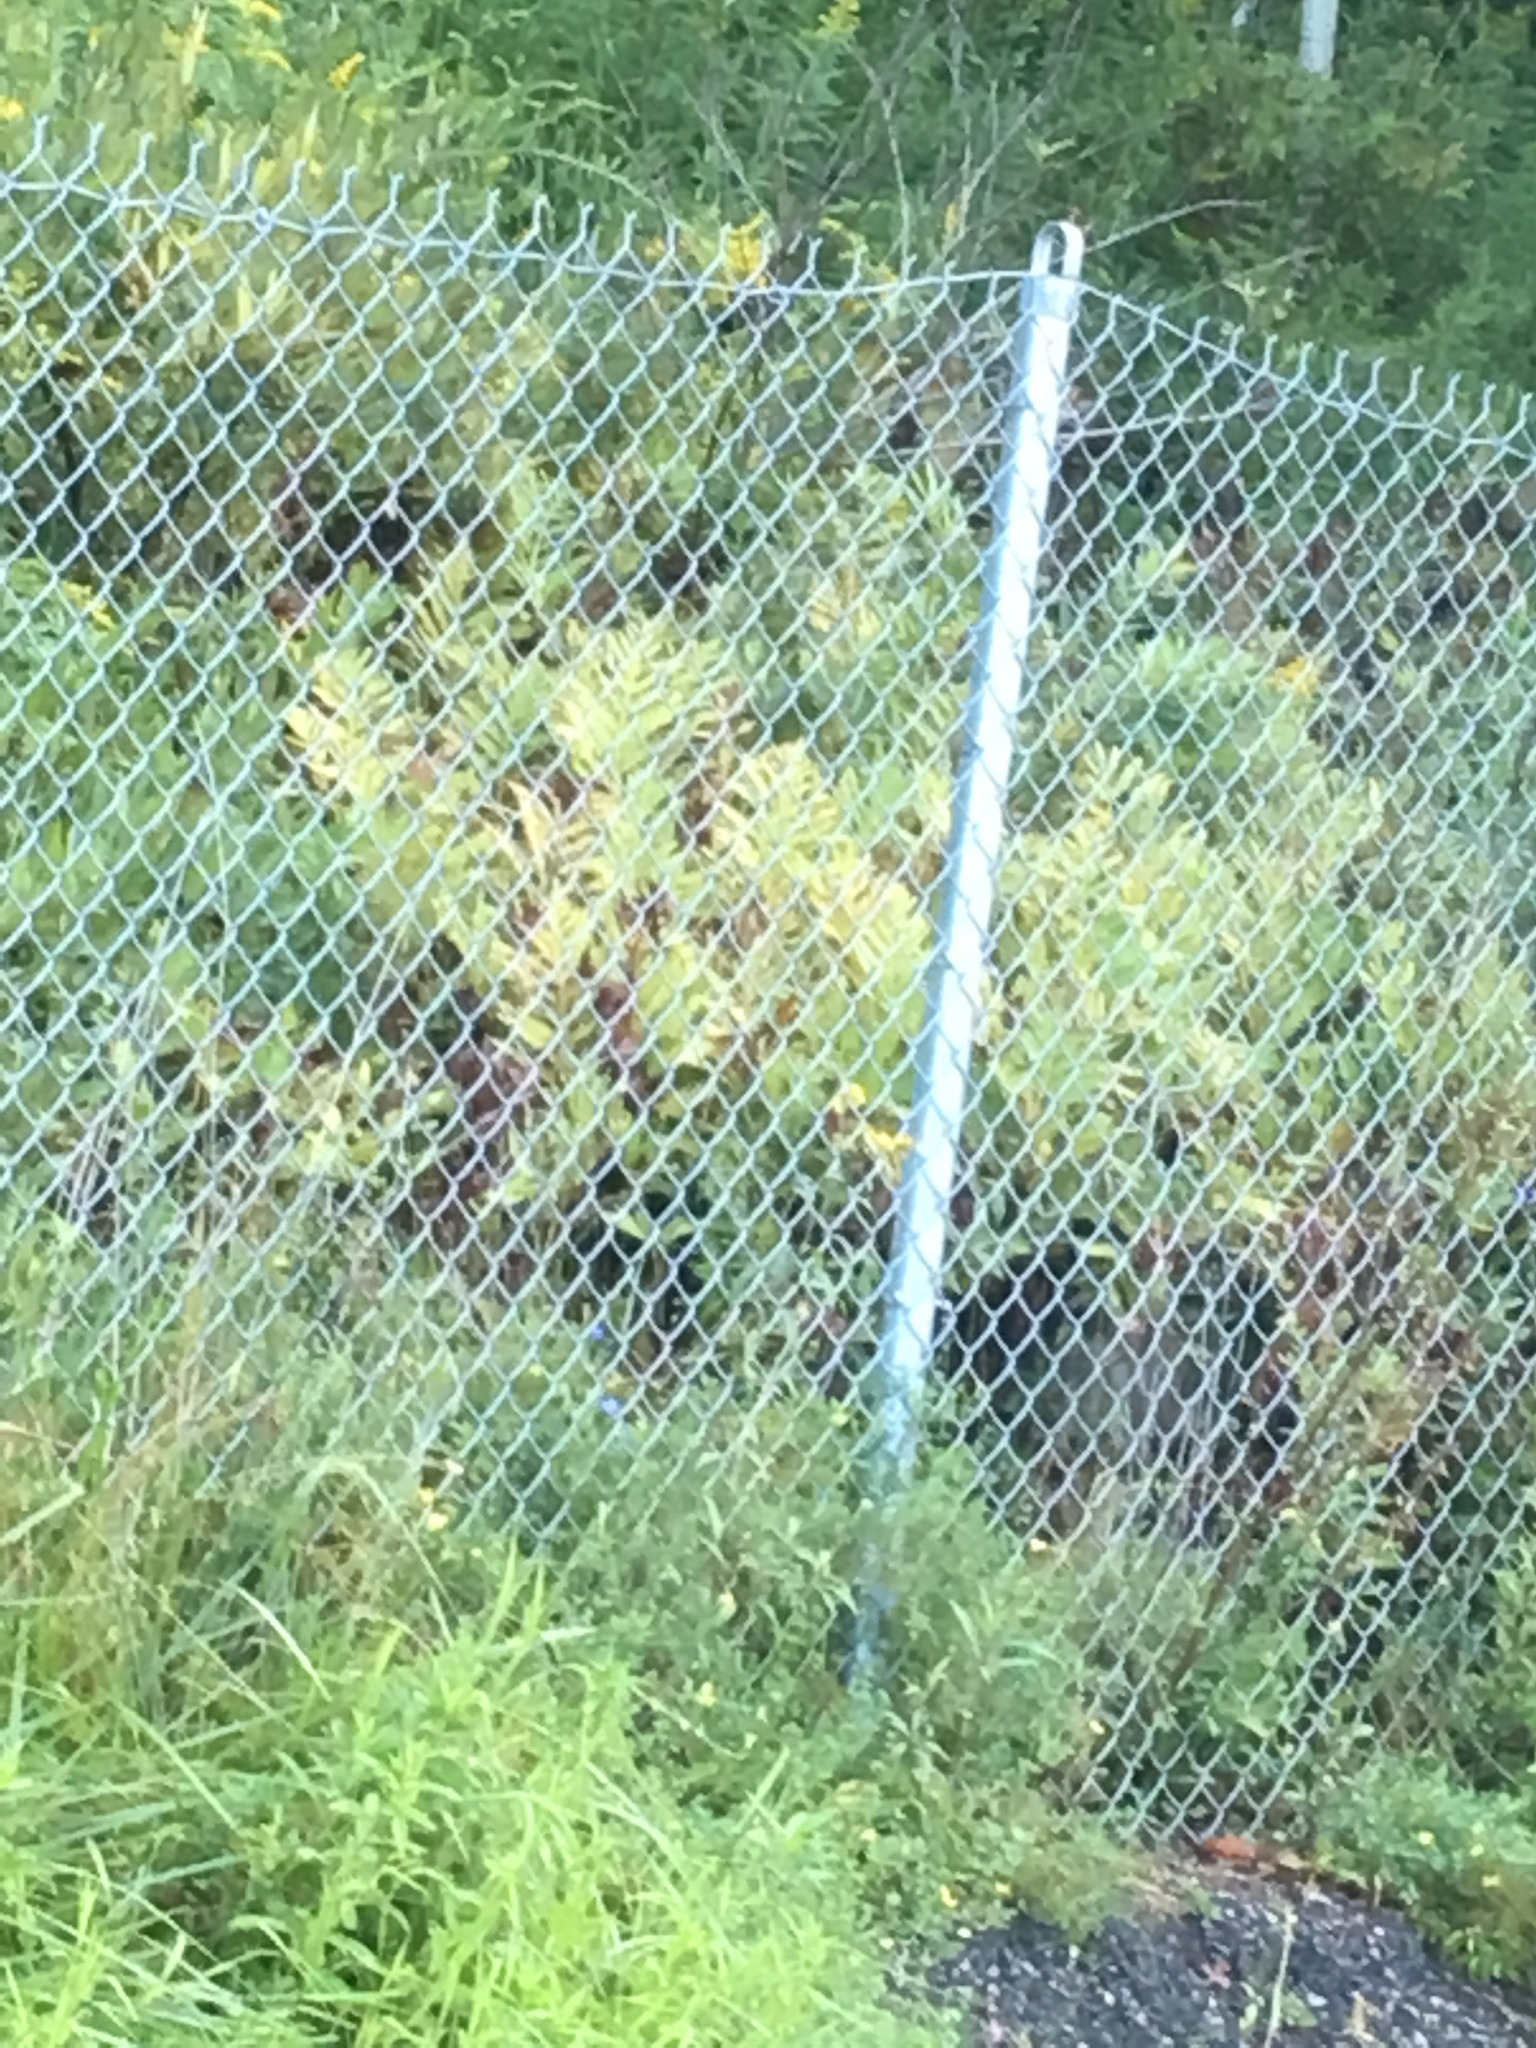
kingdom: Plantae
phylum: Tracheophyta
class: Polypodiopsida
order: Polypodiales
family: Onocleaceae
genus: Onoclea
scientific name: Onoclea sensibilis
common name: Sensitive fern
